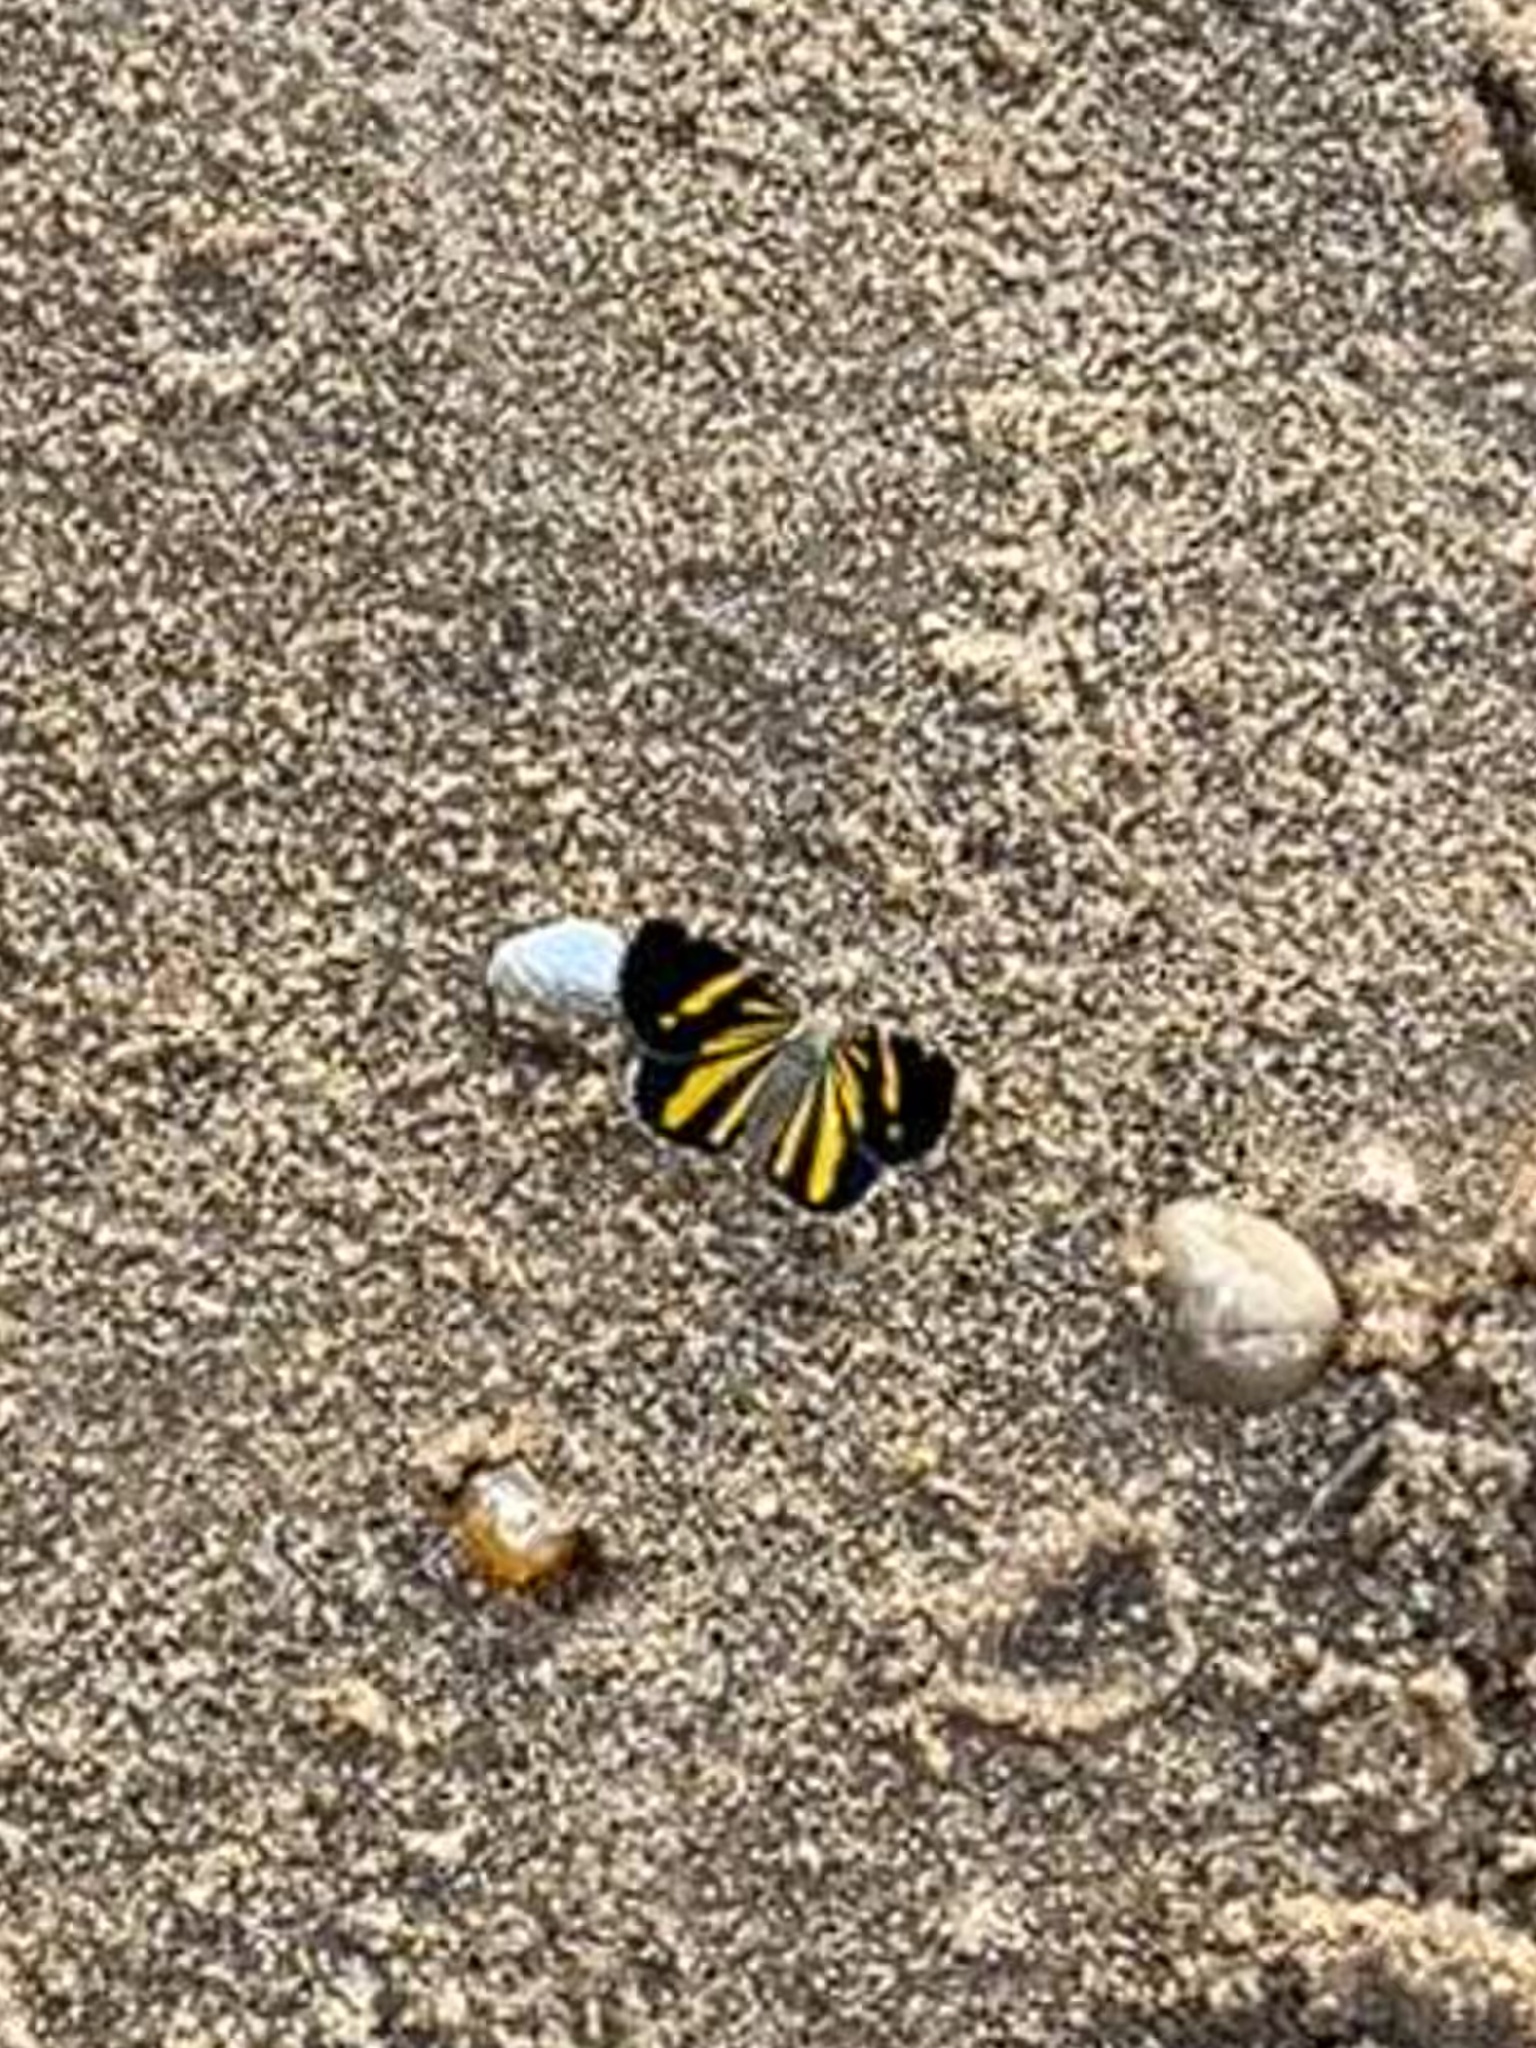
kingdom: Animalia
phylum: Arthropoda
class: Insecta
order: Lepidoptera
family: Geometridae
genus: Heterusia
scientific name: Heterusia quadruplicaria
